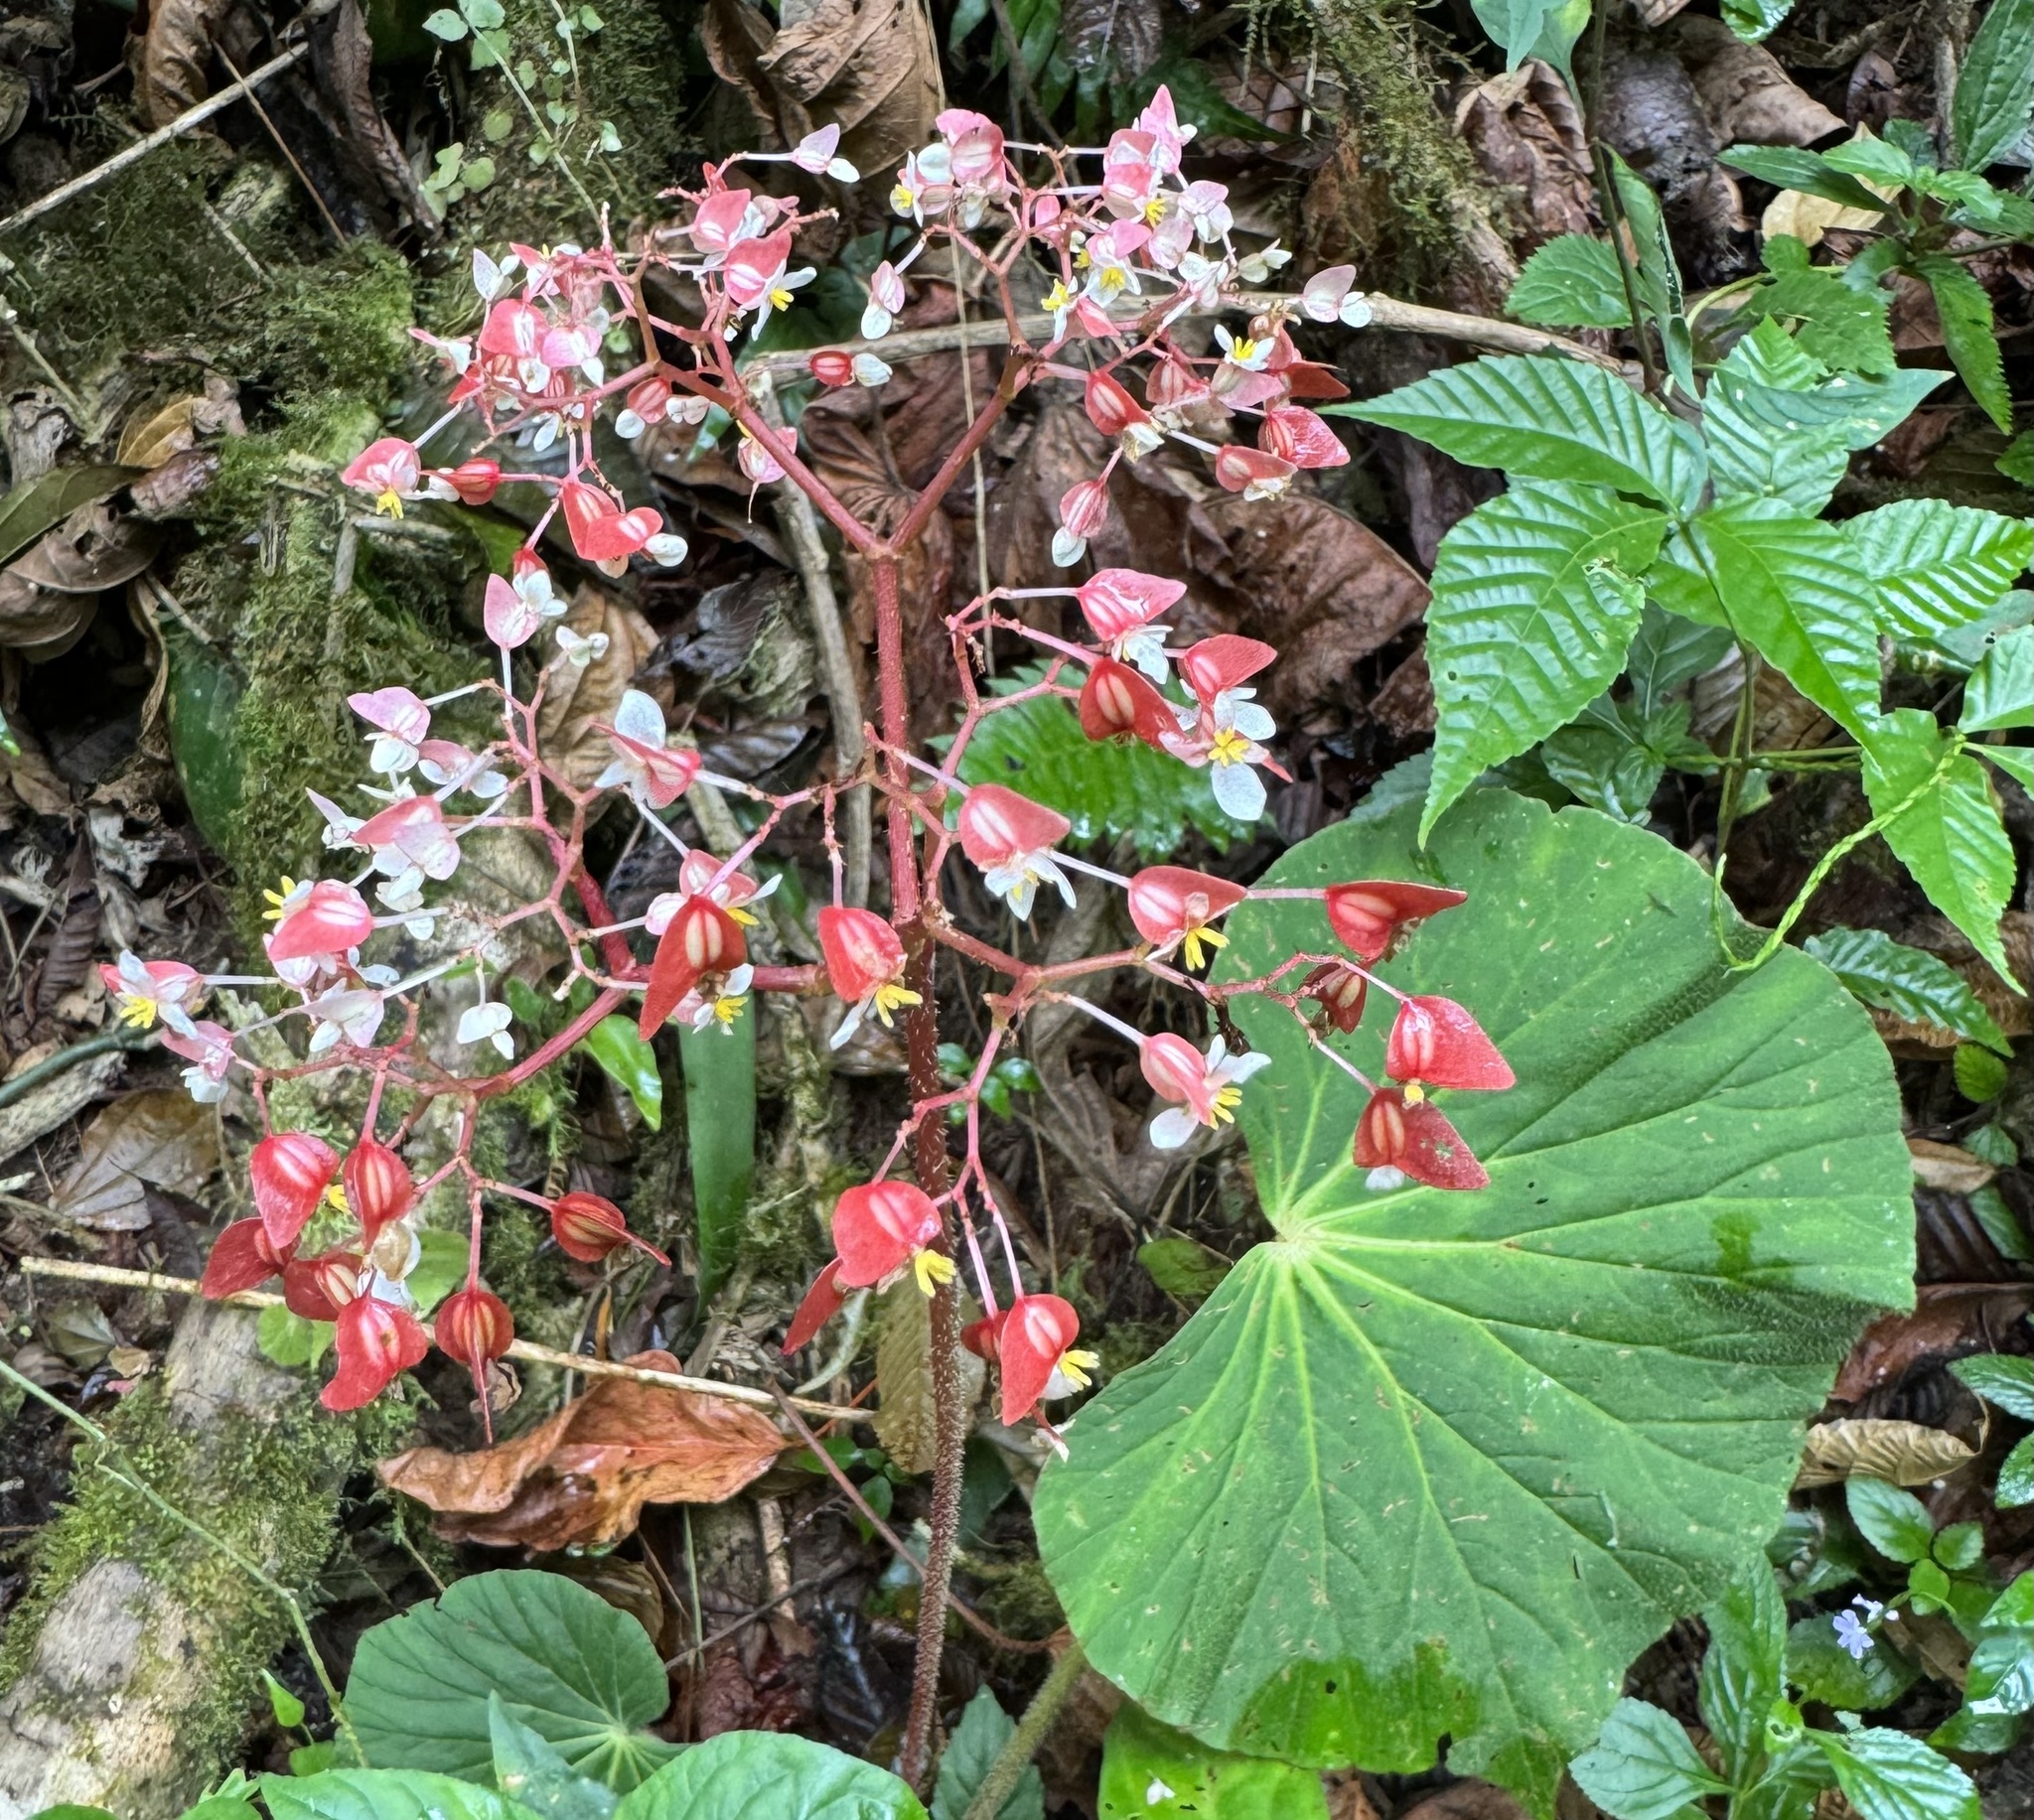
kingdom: Plantae
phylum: Tracheophyta
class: Magnoliopsida
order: Cucurbitales
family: Begoniaceae
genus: Begonia
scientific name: Begonia itaguassuensis
